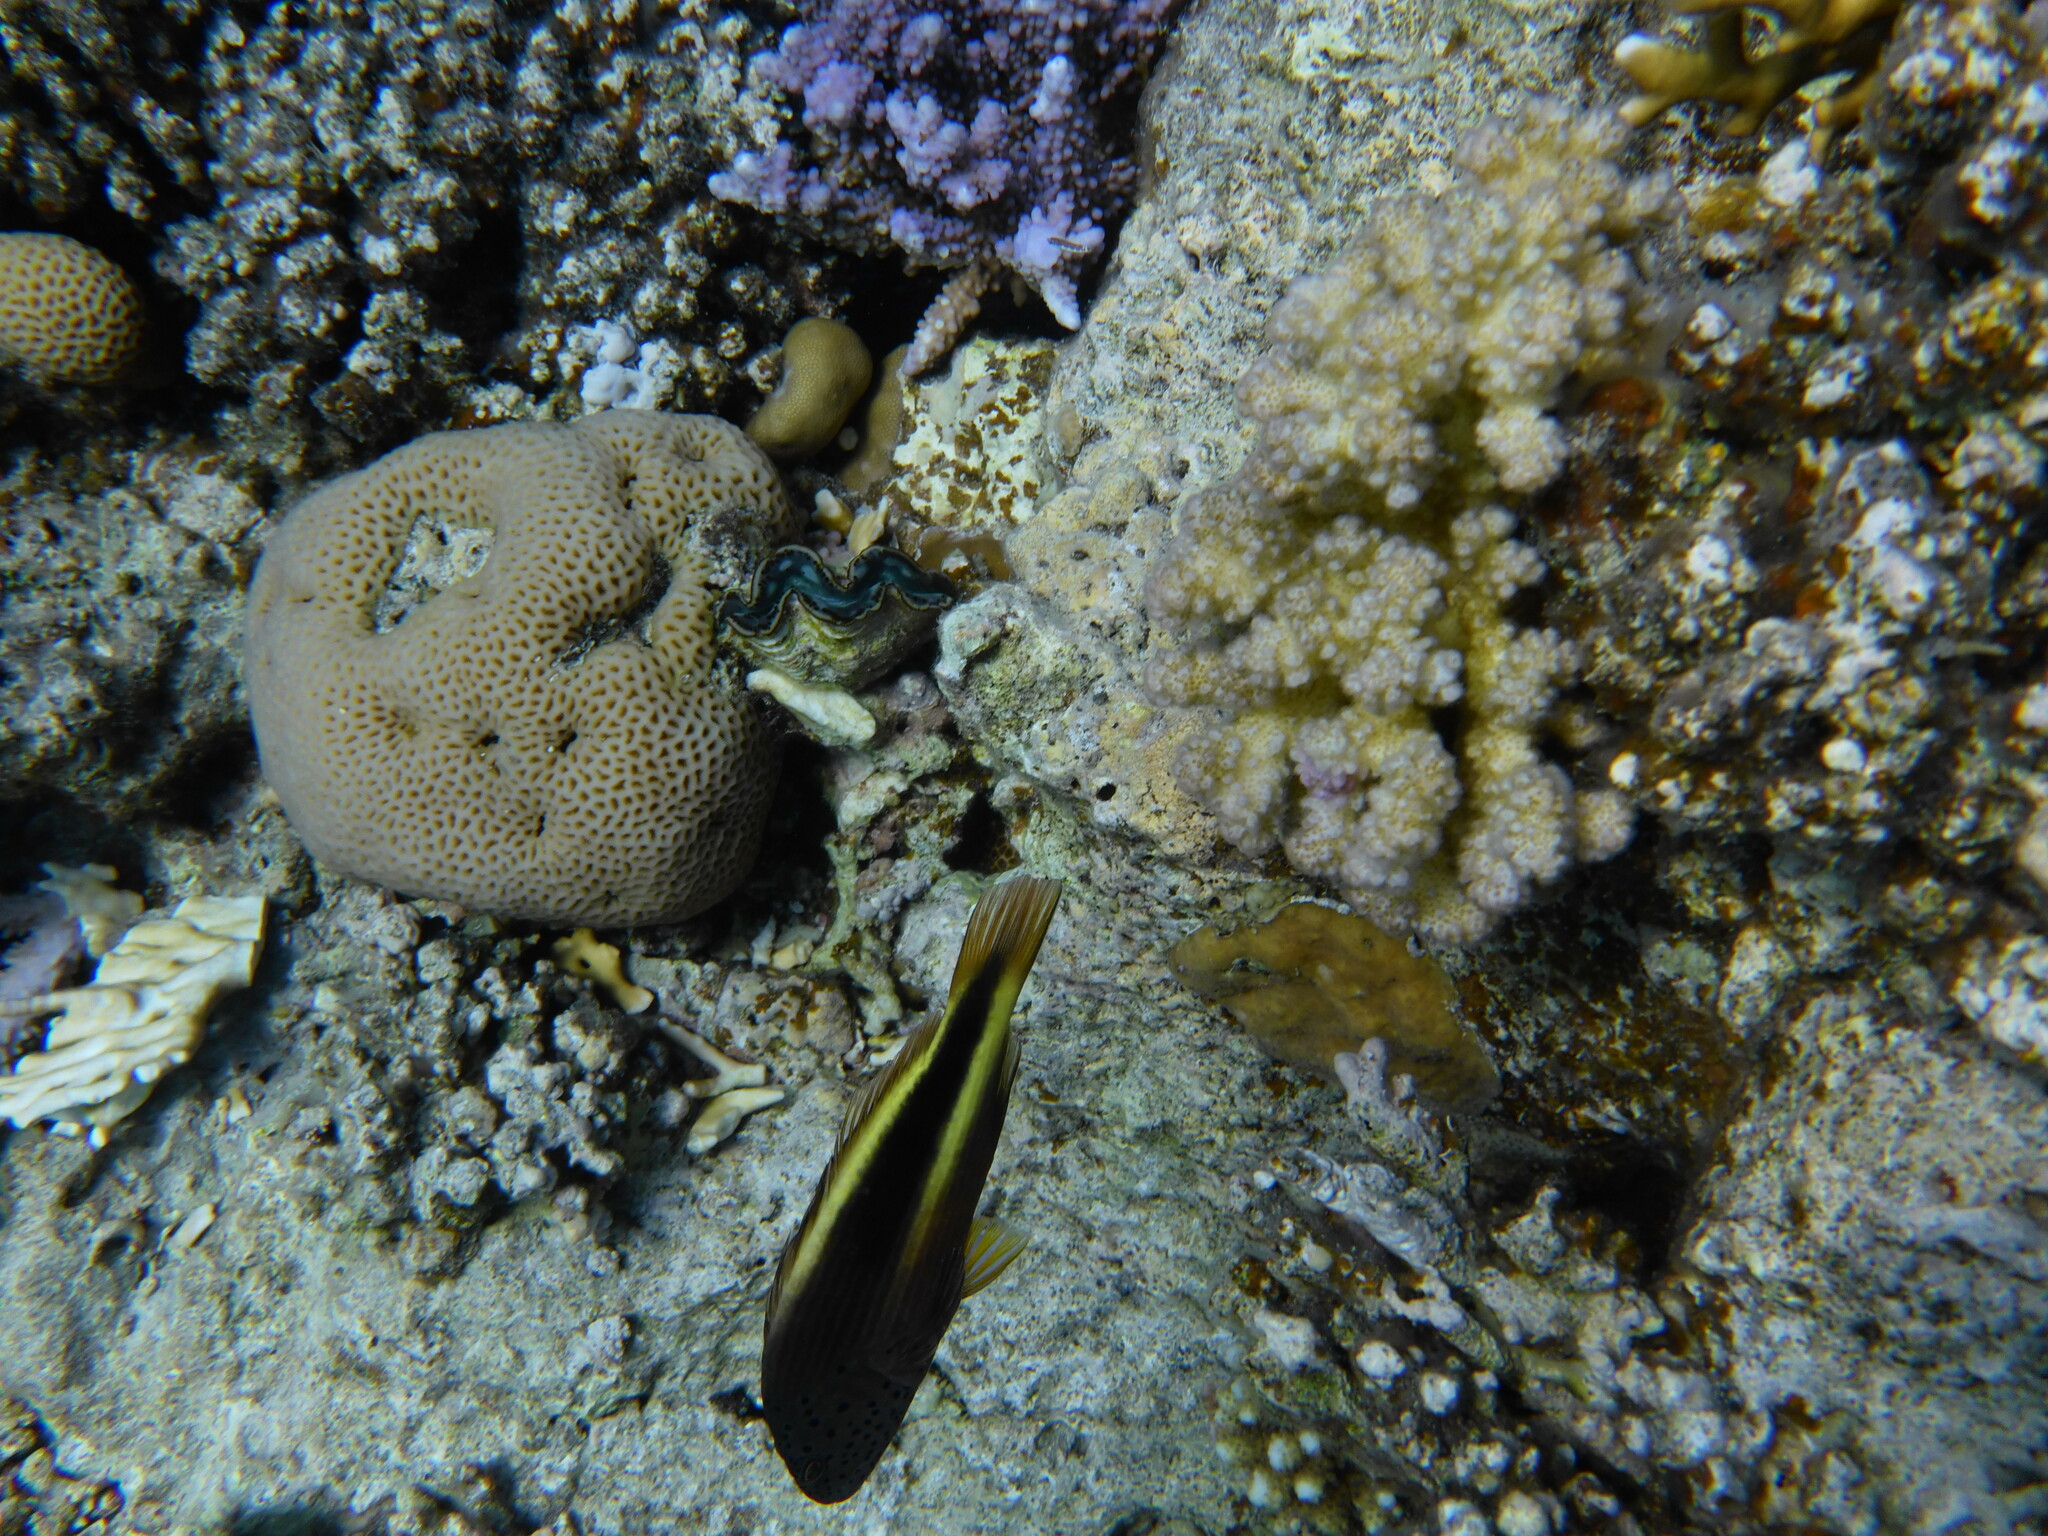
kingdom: Animalia
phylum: Chordata
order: Perciformes
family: Cirrhitidae
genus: Paracirrhites
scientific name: Paracirrhites forsteri
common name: Freckled hawkfish
